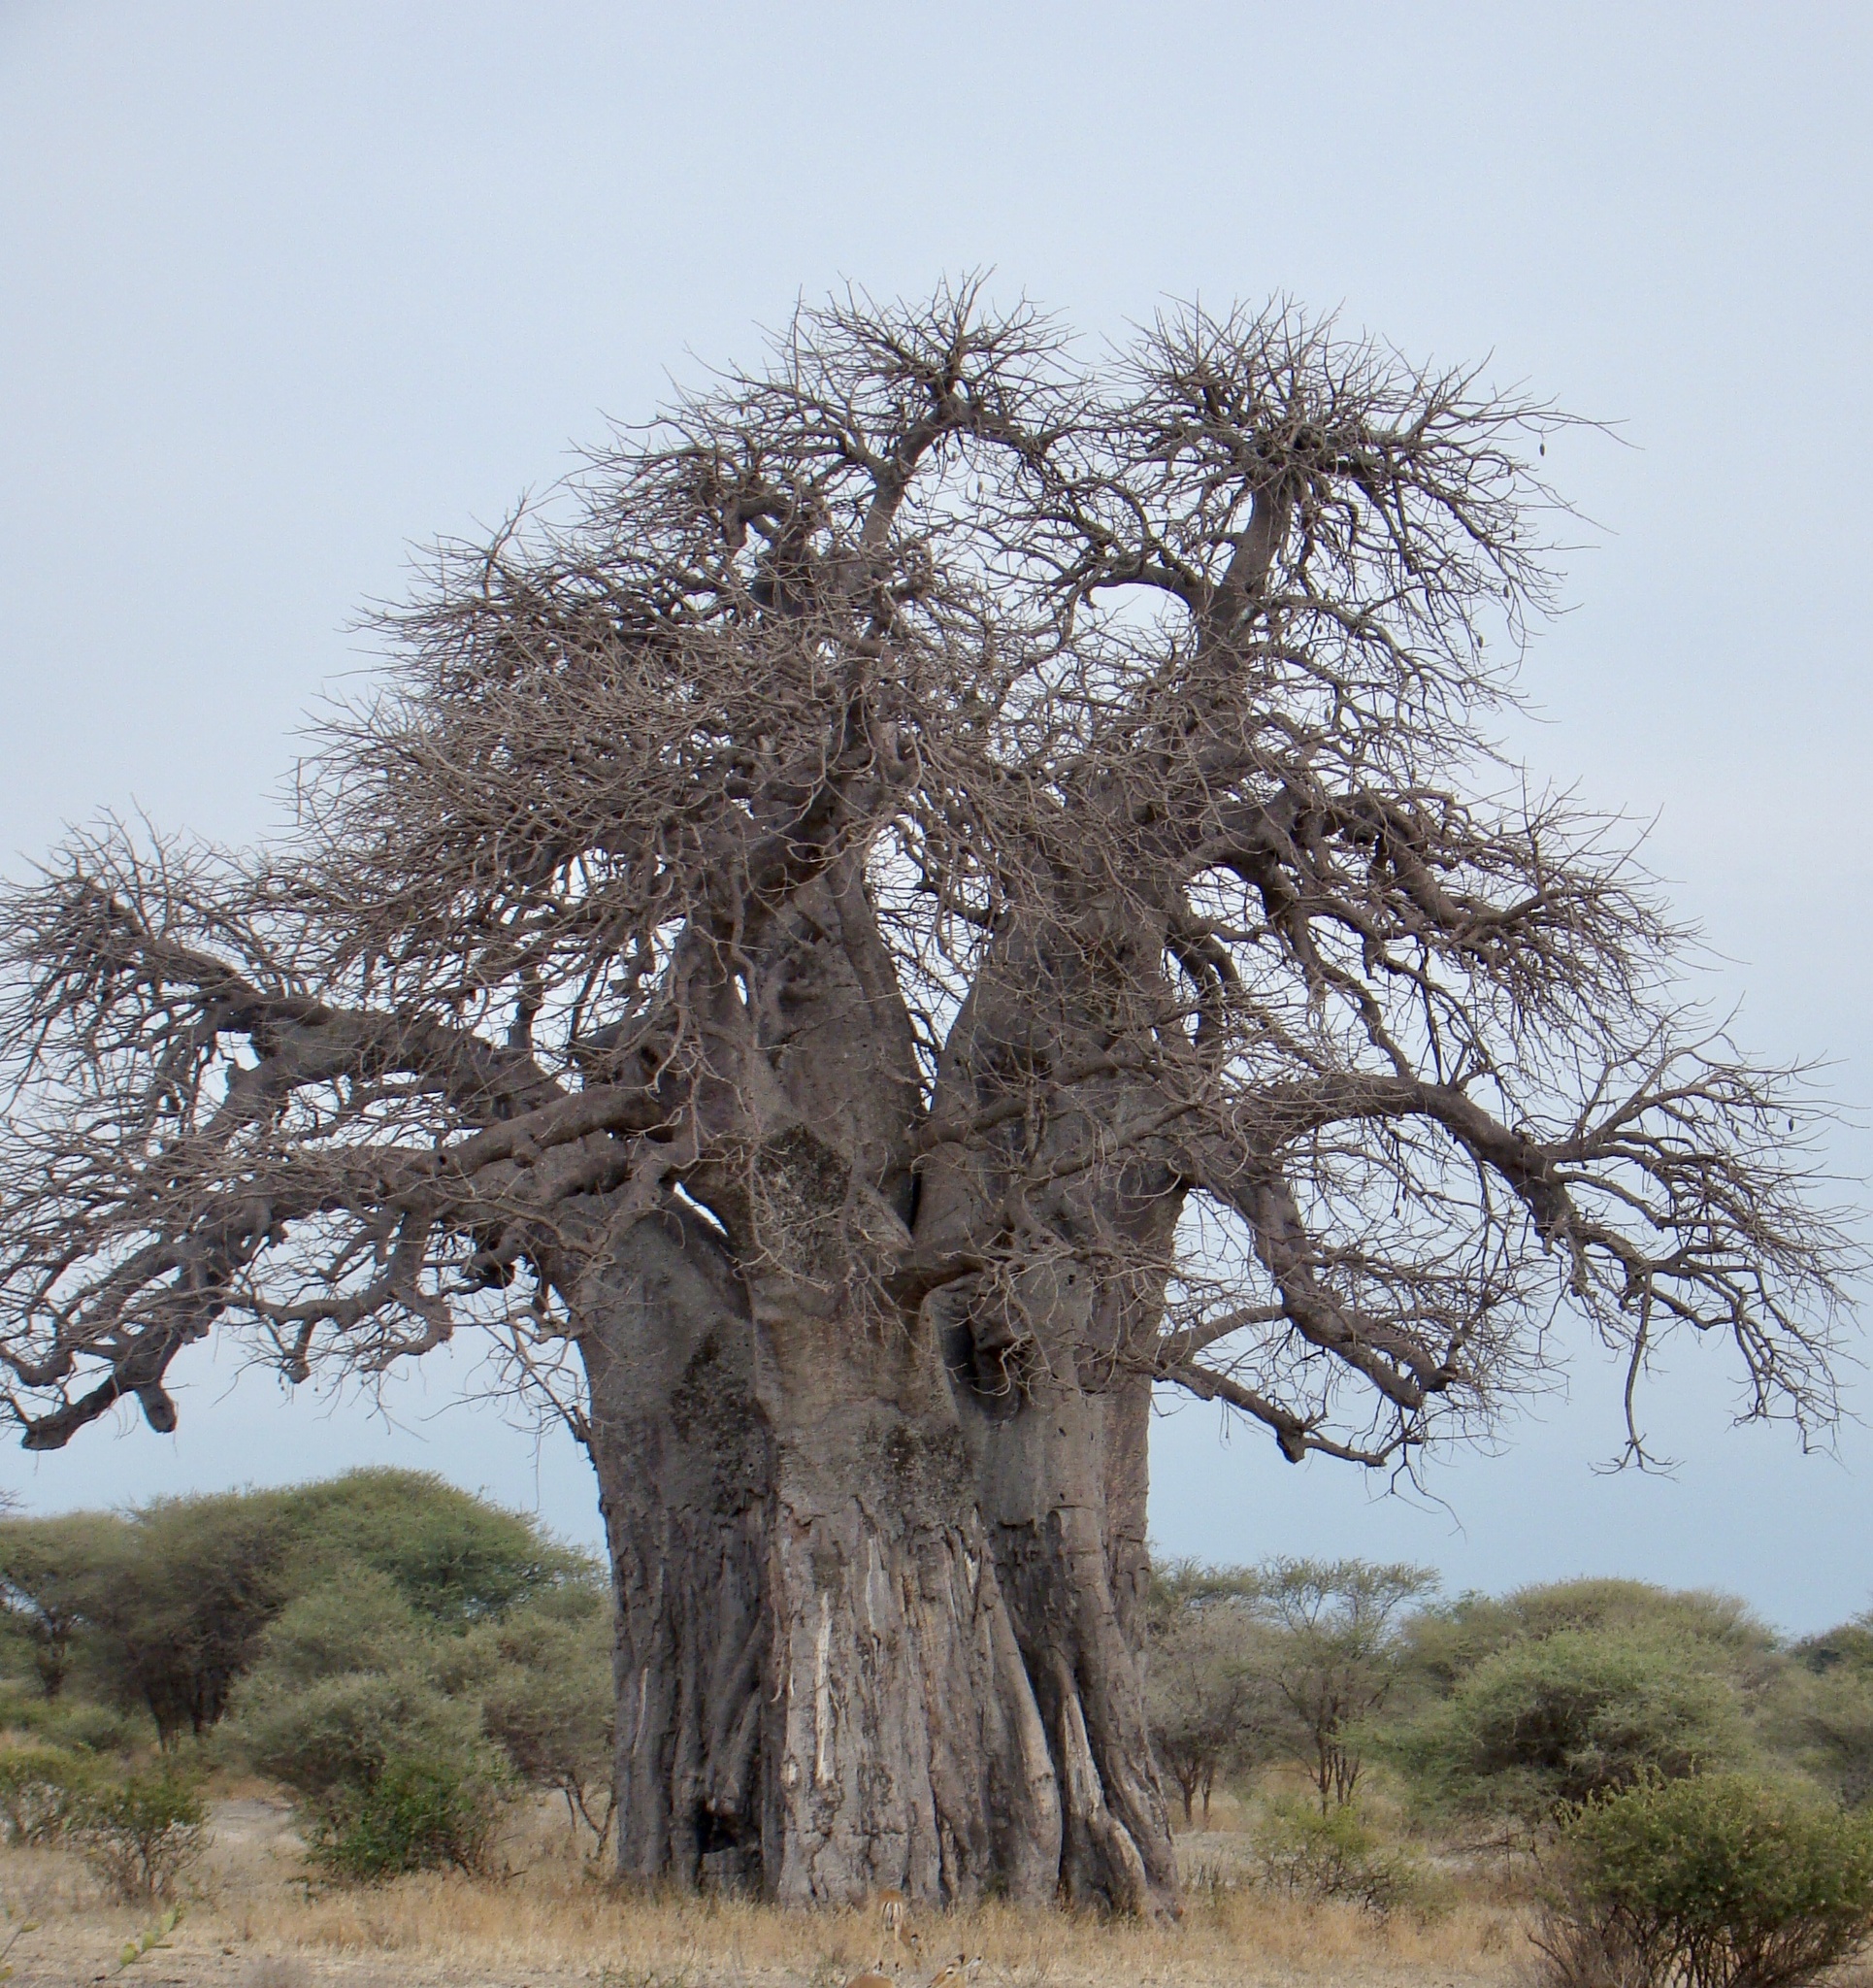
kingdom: Plantae
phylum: Tracheophyta
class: Magnoliopsida
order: Malvales
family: Malvaceae
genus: Adansonia
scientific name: Adansonia digitata
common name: Dead-rat-tree
